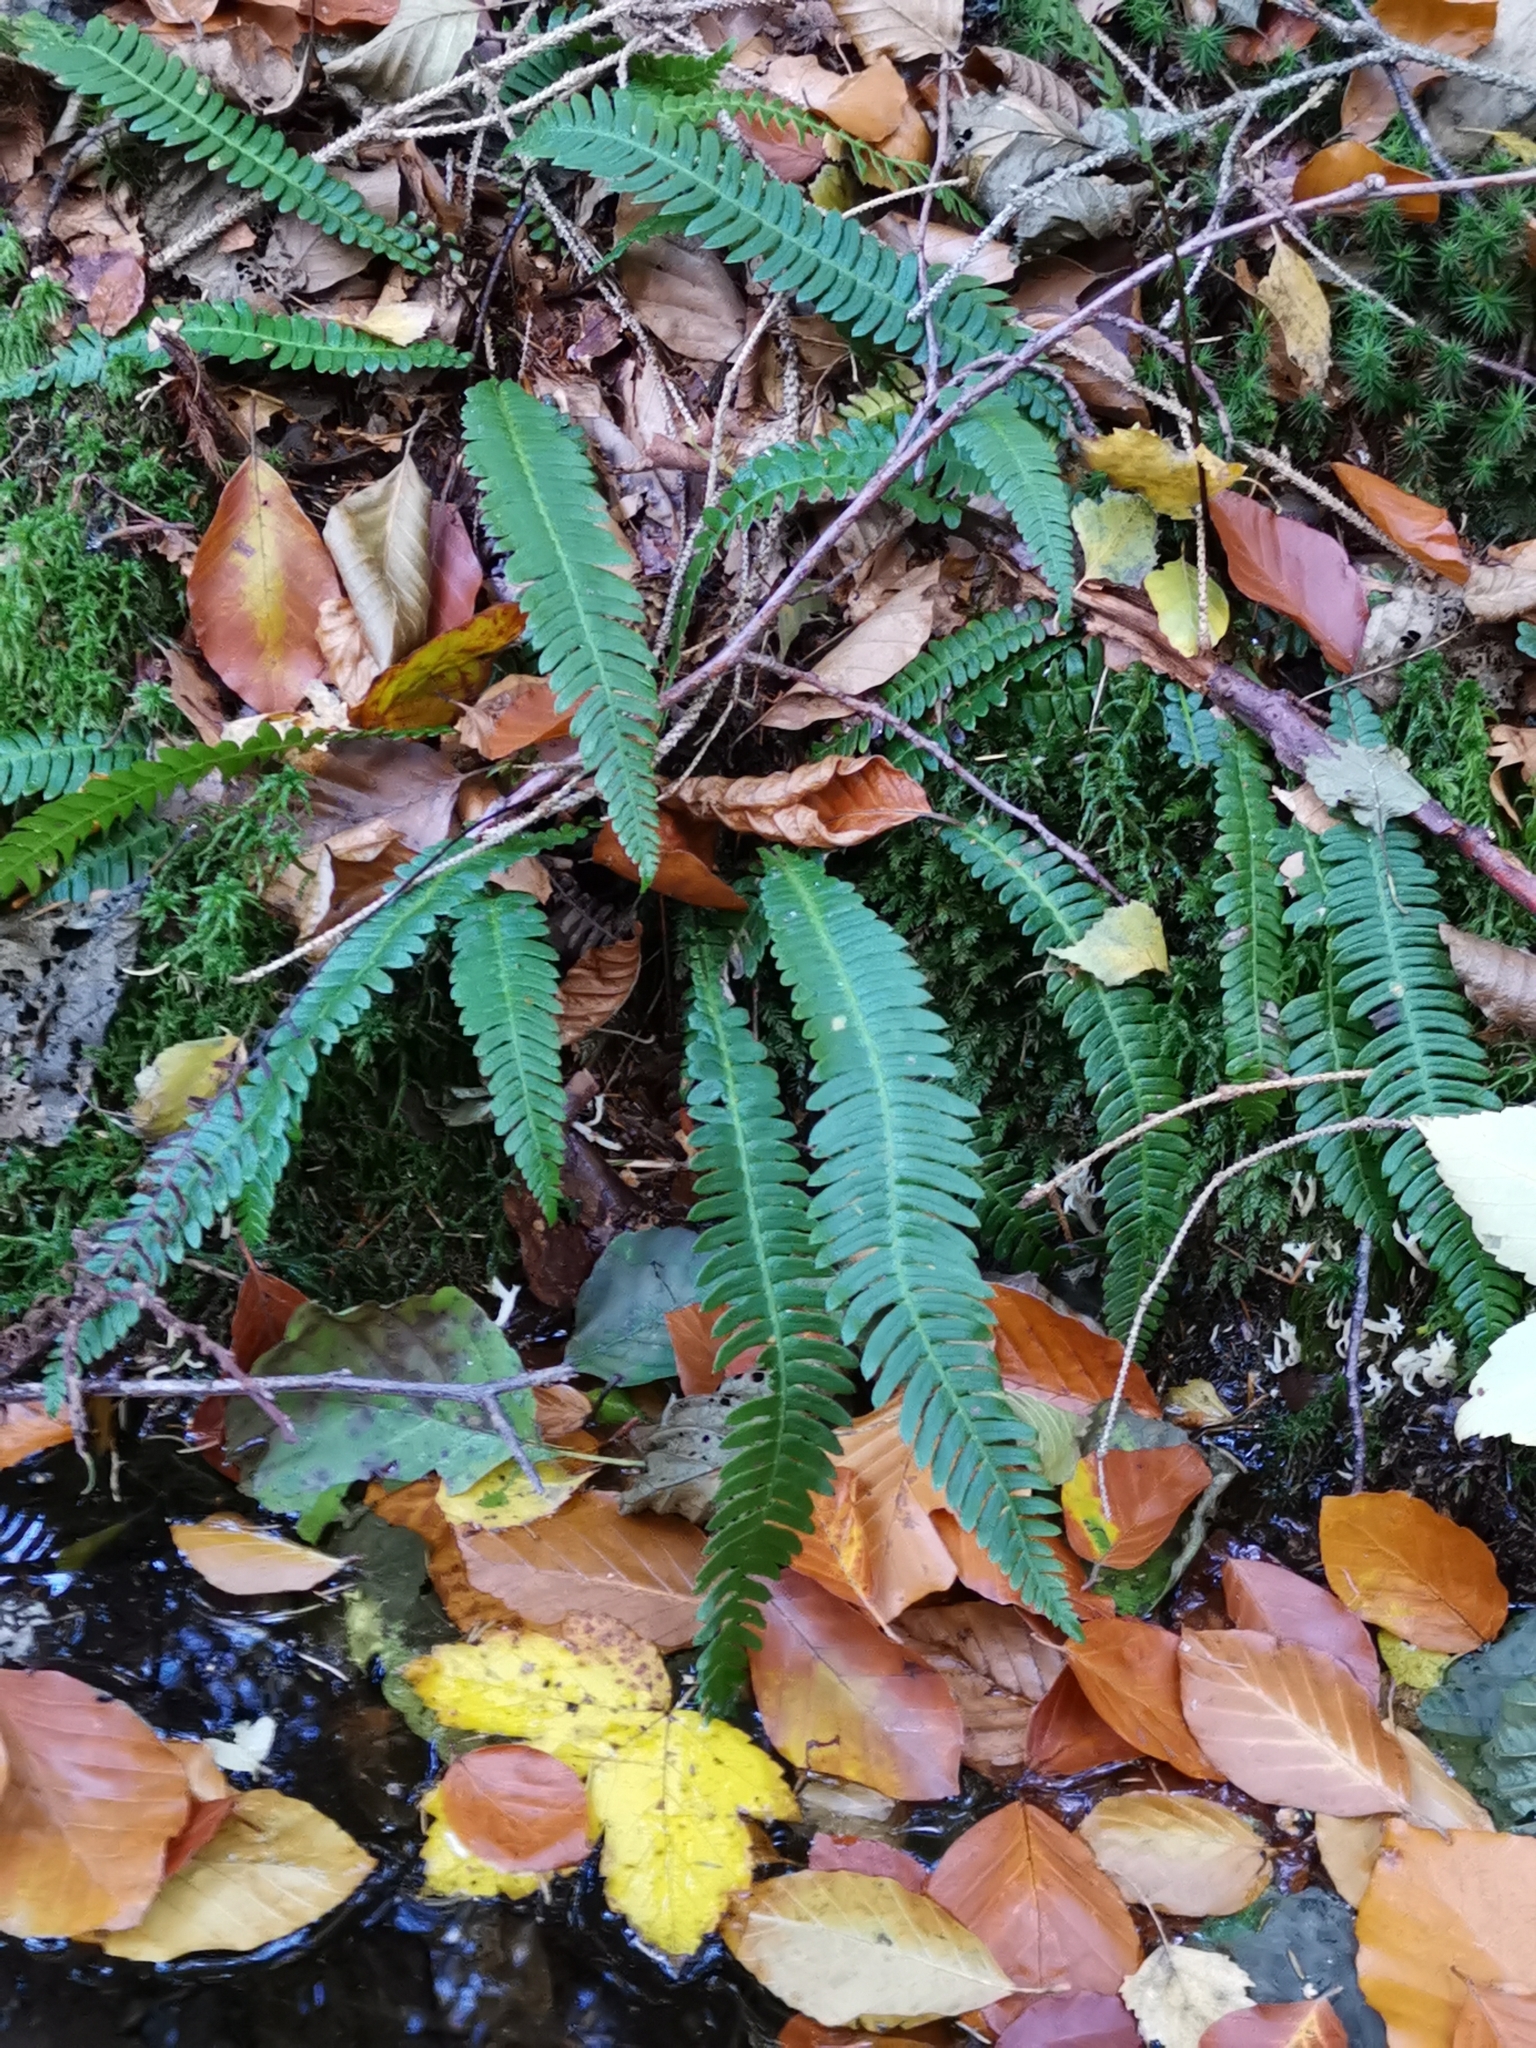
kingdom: Plantae
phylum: Tracheophyta
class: Polypodiopsida
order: Polypodiales
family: Blechnaceae
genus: Struthiopteris
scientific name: Struthiopteris spicant
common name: Deer fern
